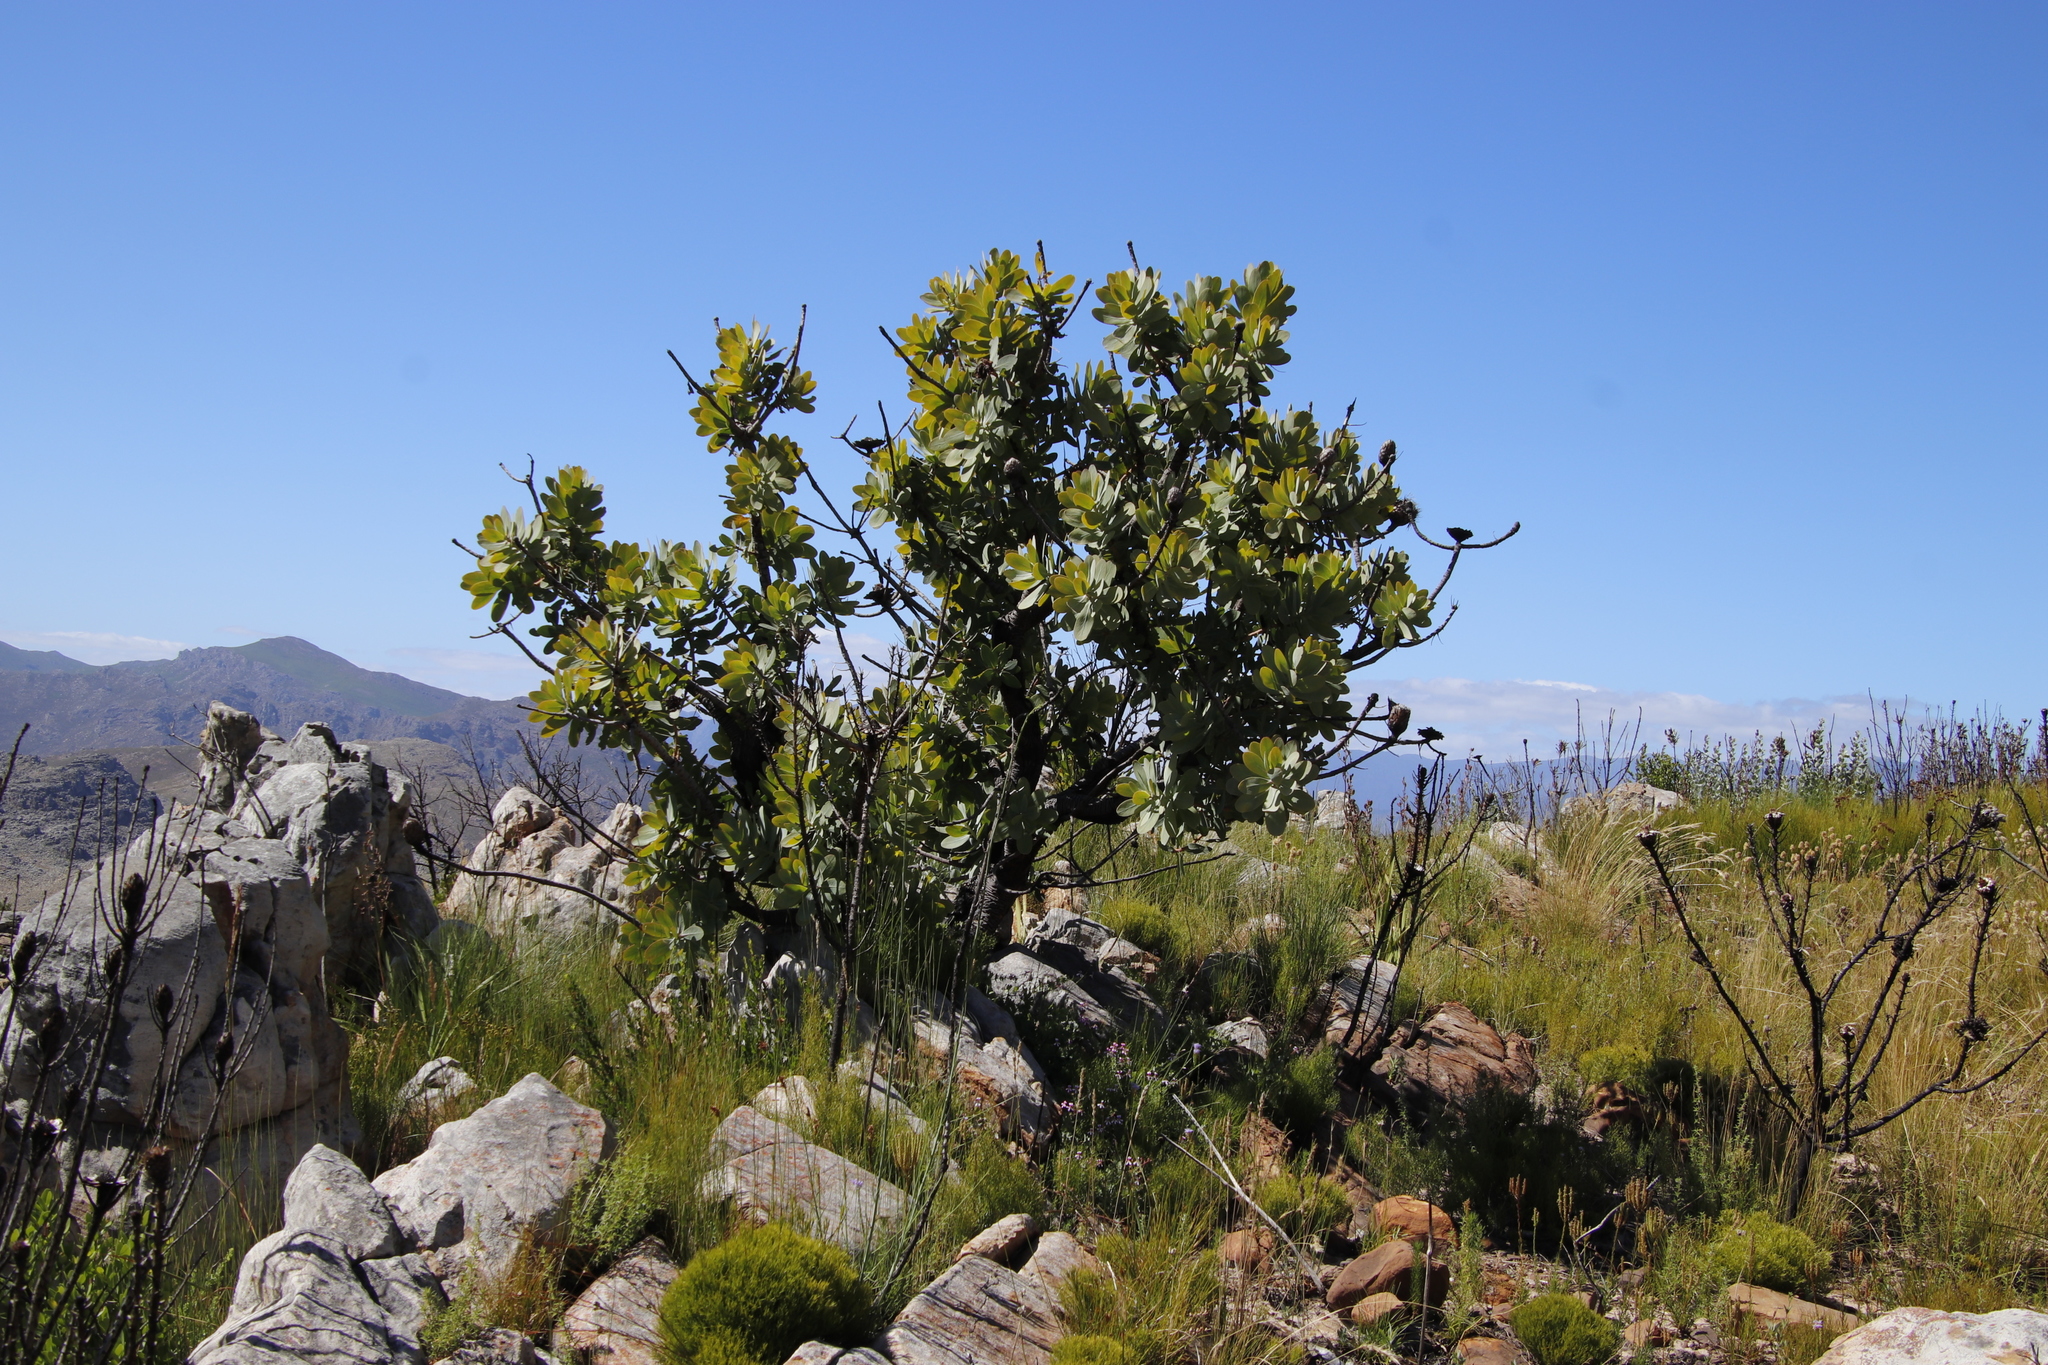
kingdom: Plantae
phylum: Tracheophyta
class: Magnoliopsida
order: Proteales
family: Proteaceae
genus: Protea
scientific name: Protea nitida
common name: Tree protea
